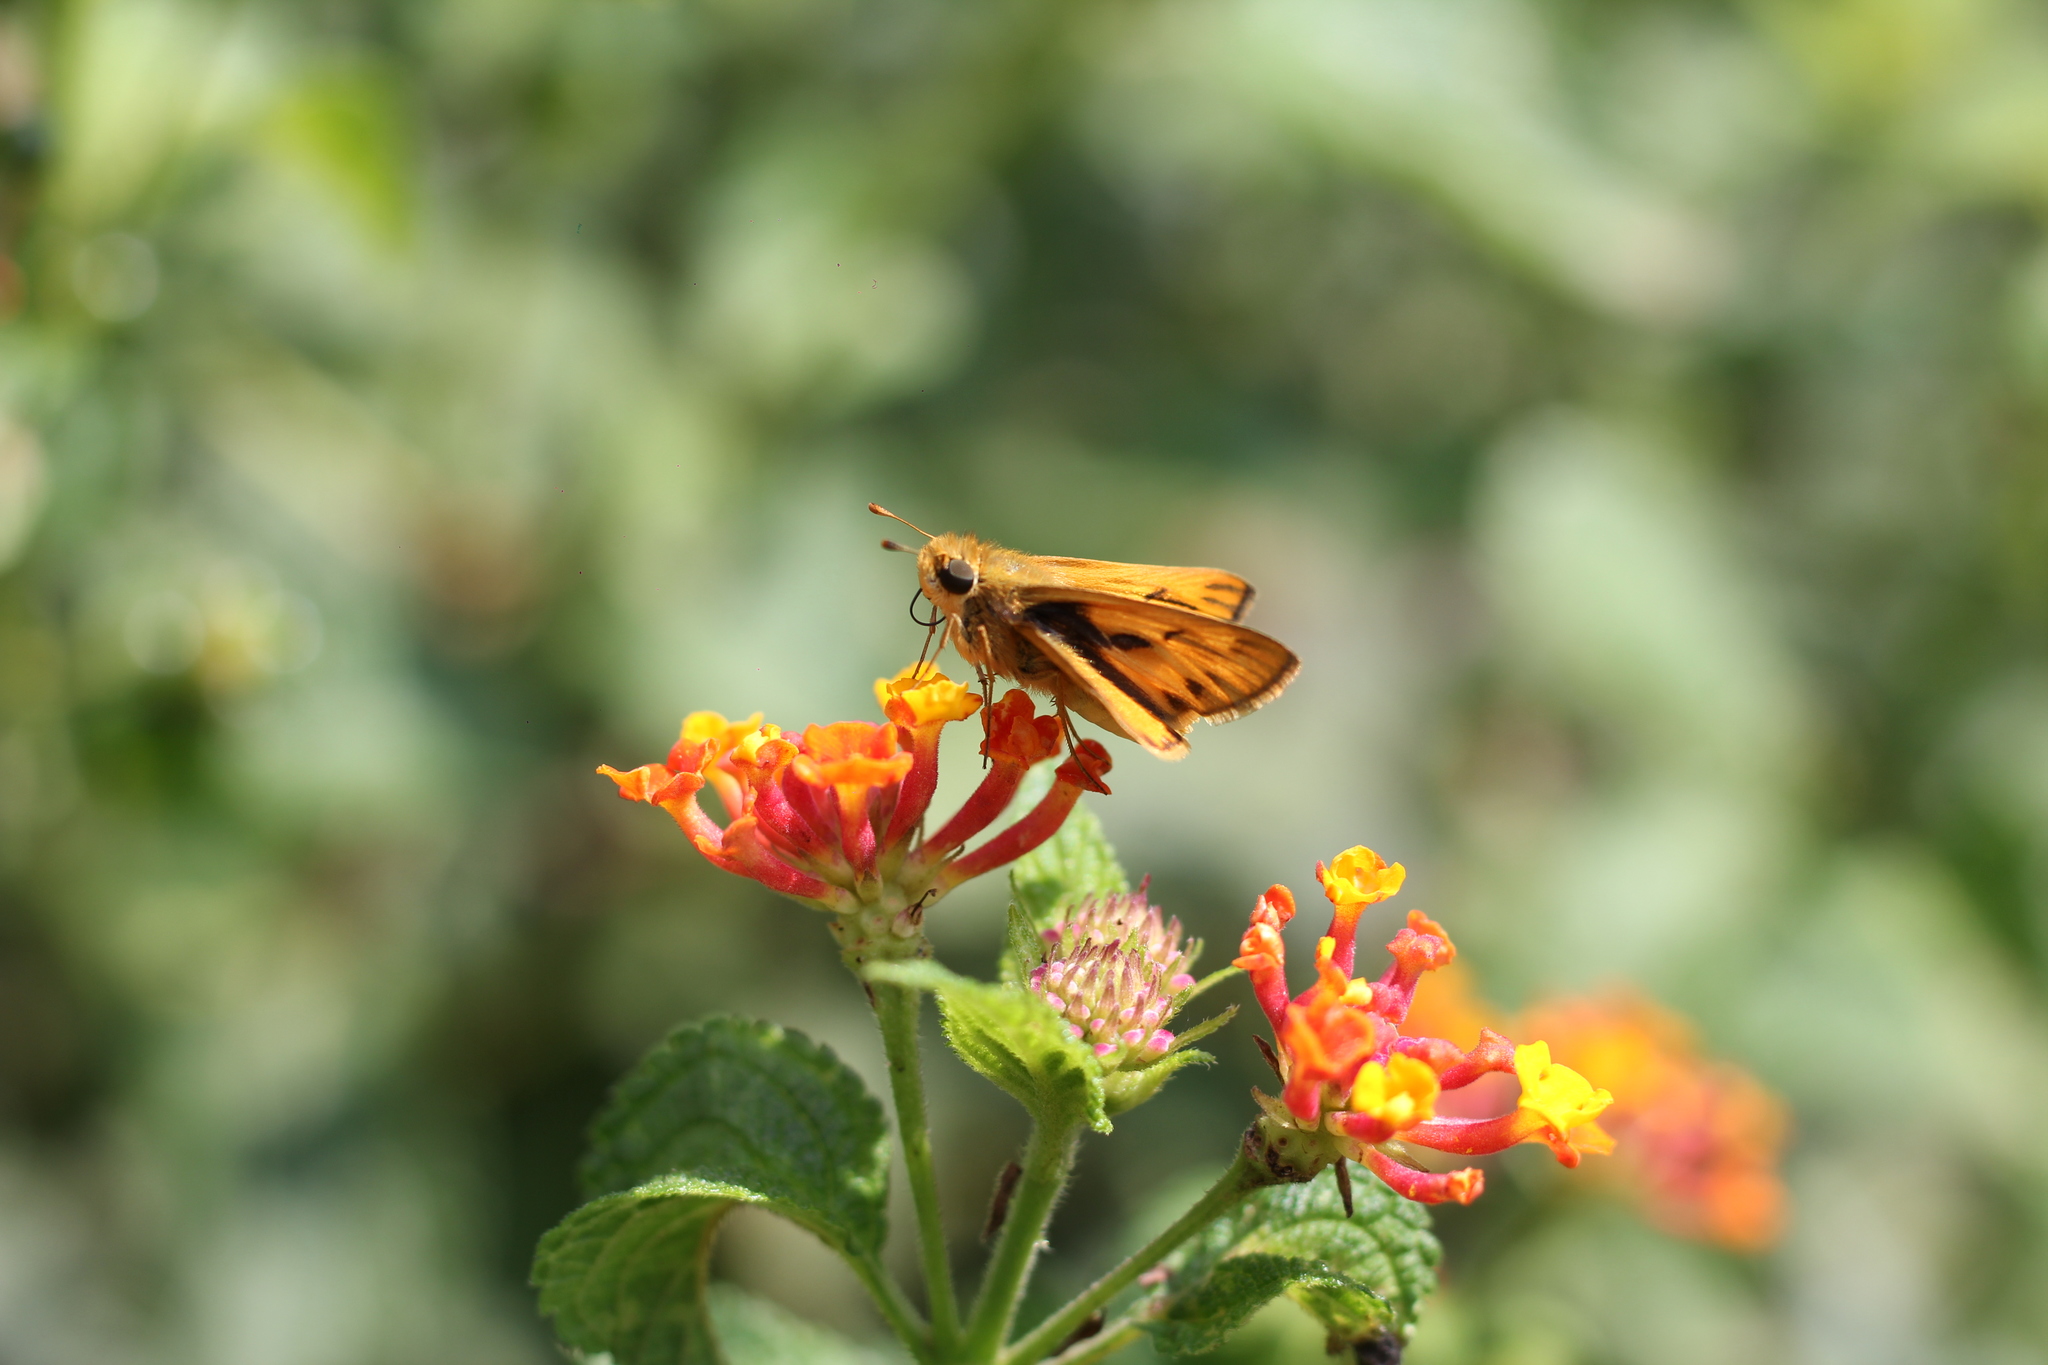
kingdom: Animalia
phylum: Arthropoda
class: Insecta
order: Lepidoptera
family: Hesperiidae
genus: Hylephila
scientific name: Hylephila phyleus
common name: Fiery skipper
